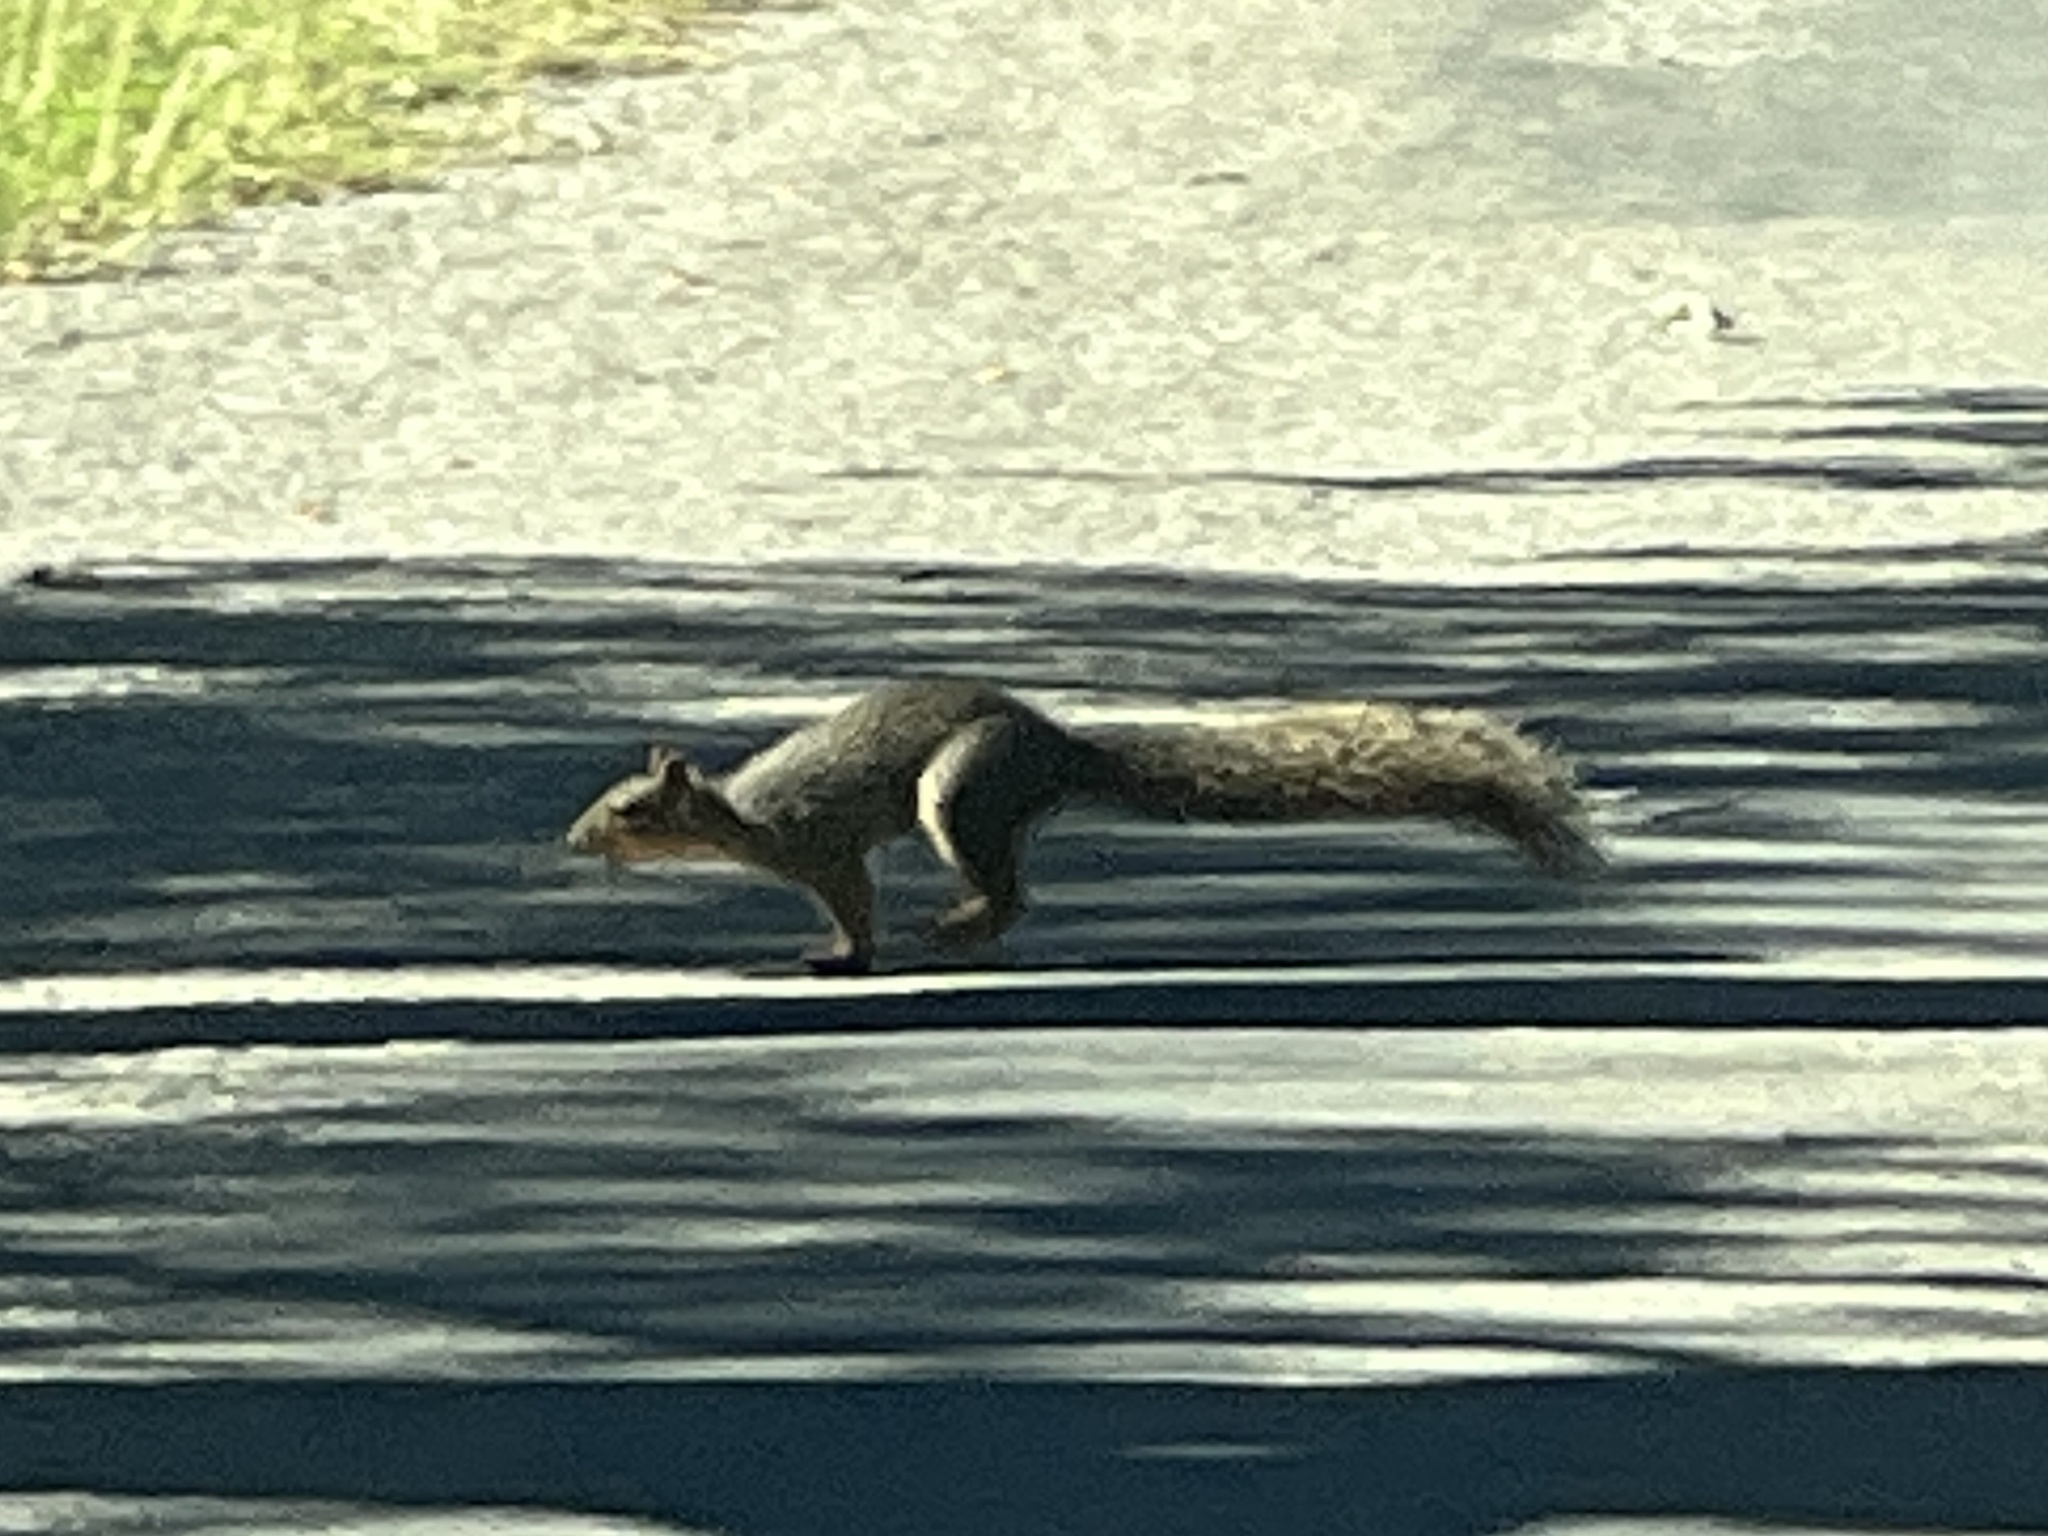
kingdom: Animalia
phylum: Chordata
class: Mammalia
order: Rodentia
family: Sciuridae
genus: Sciurus
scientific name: Sciurus niger
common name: Fox squirrel
